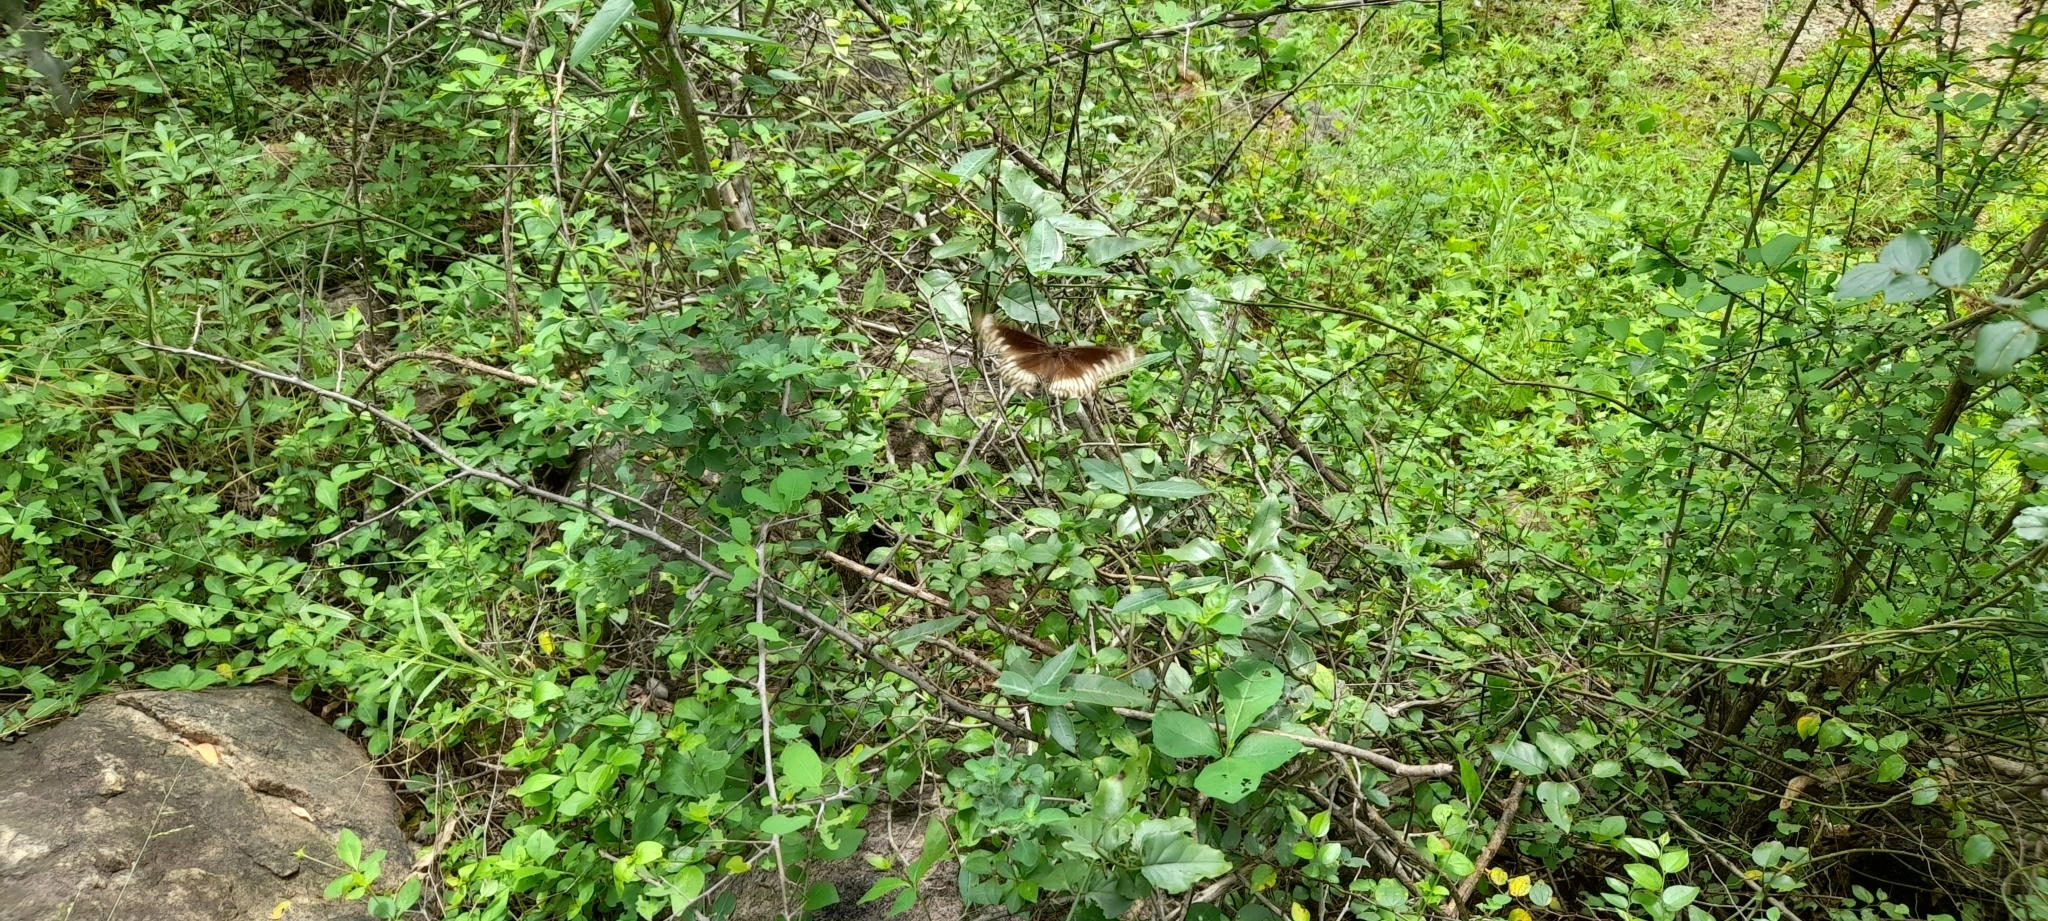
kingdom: Animalia
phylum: Arthropoda
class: Insecta
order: Lepidoptera
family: Nymphalidae
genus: Euploea
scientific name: Euploea core
